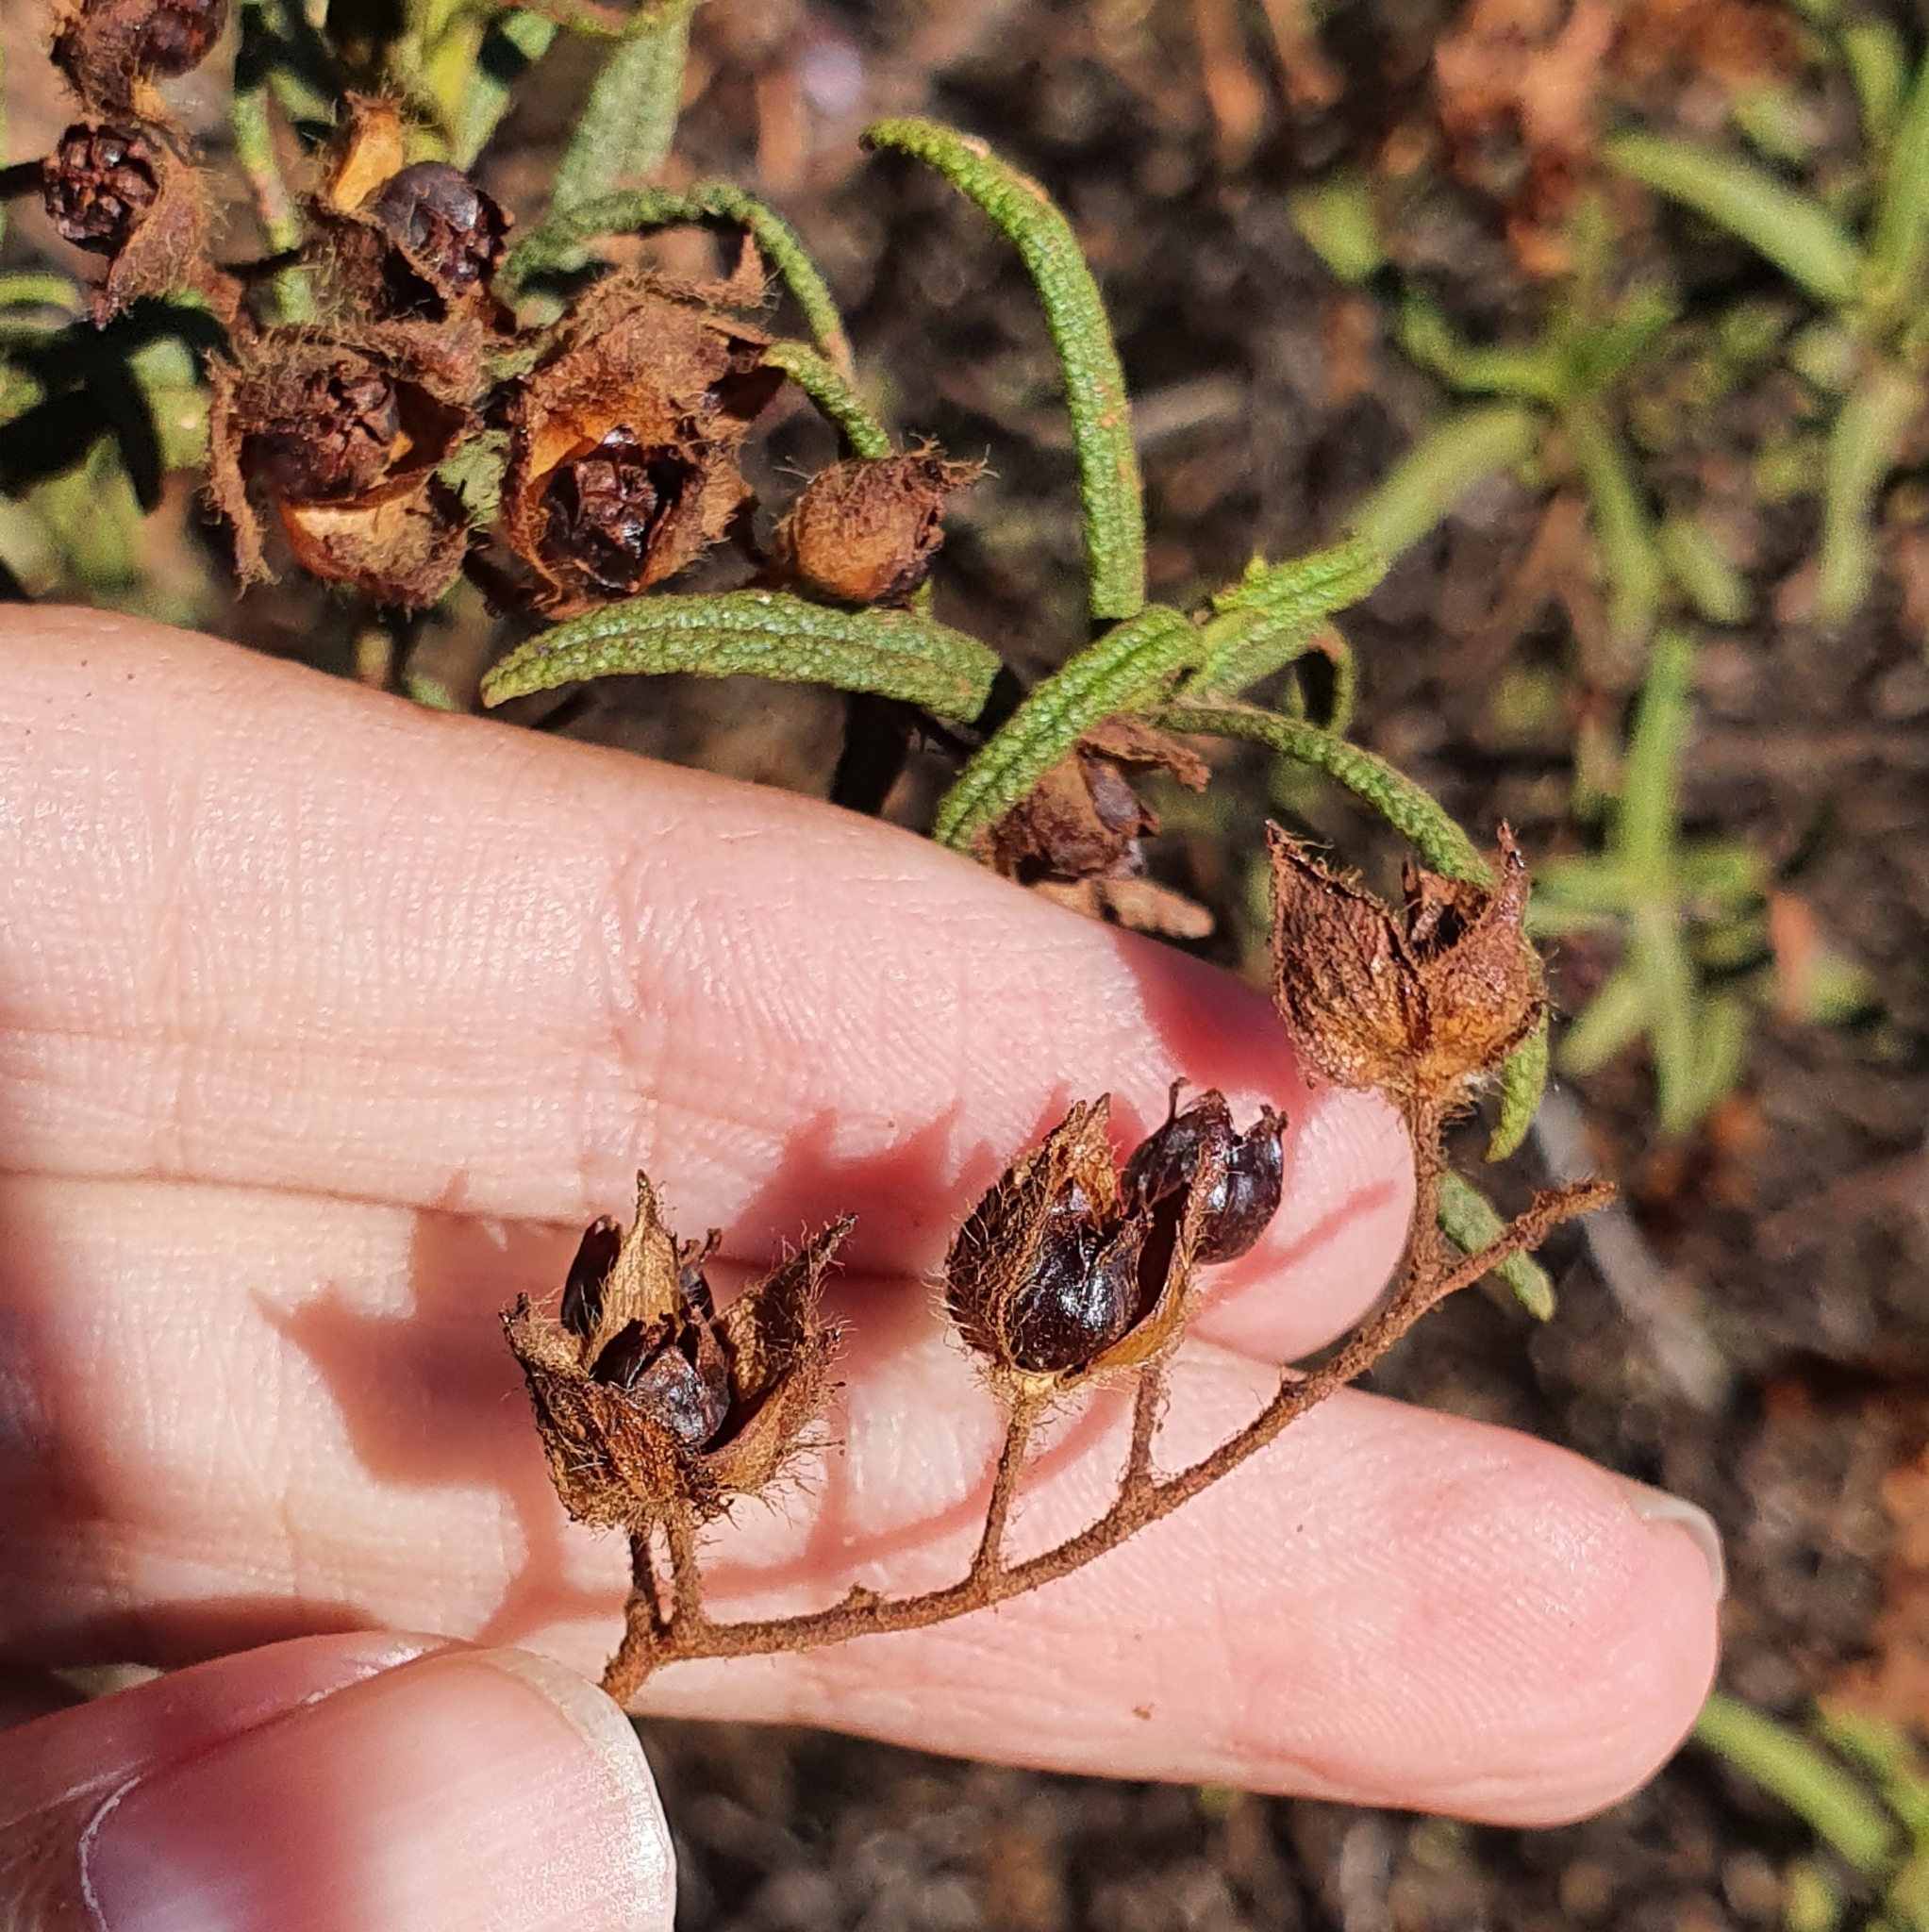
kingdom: Plantae
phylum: Tracheophyta
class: Magnoliopsida
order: Malvales
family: Cistaceae
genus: Cistus
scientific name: Cistus monspeliensis
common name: Montpelier cistus
